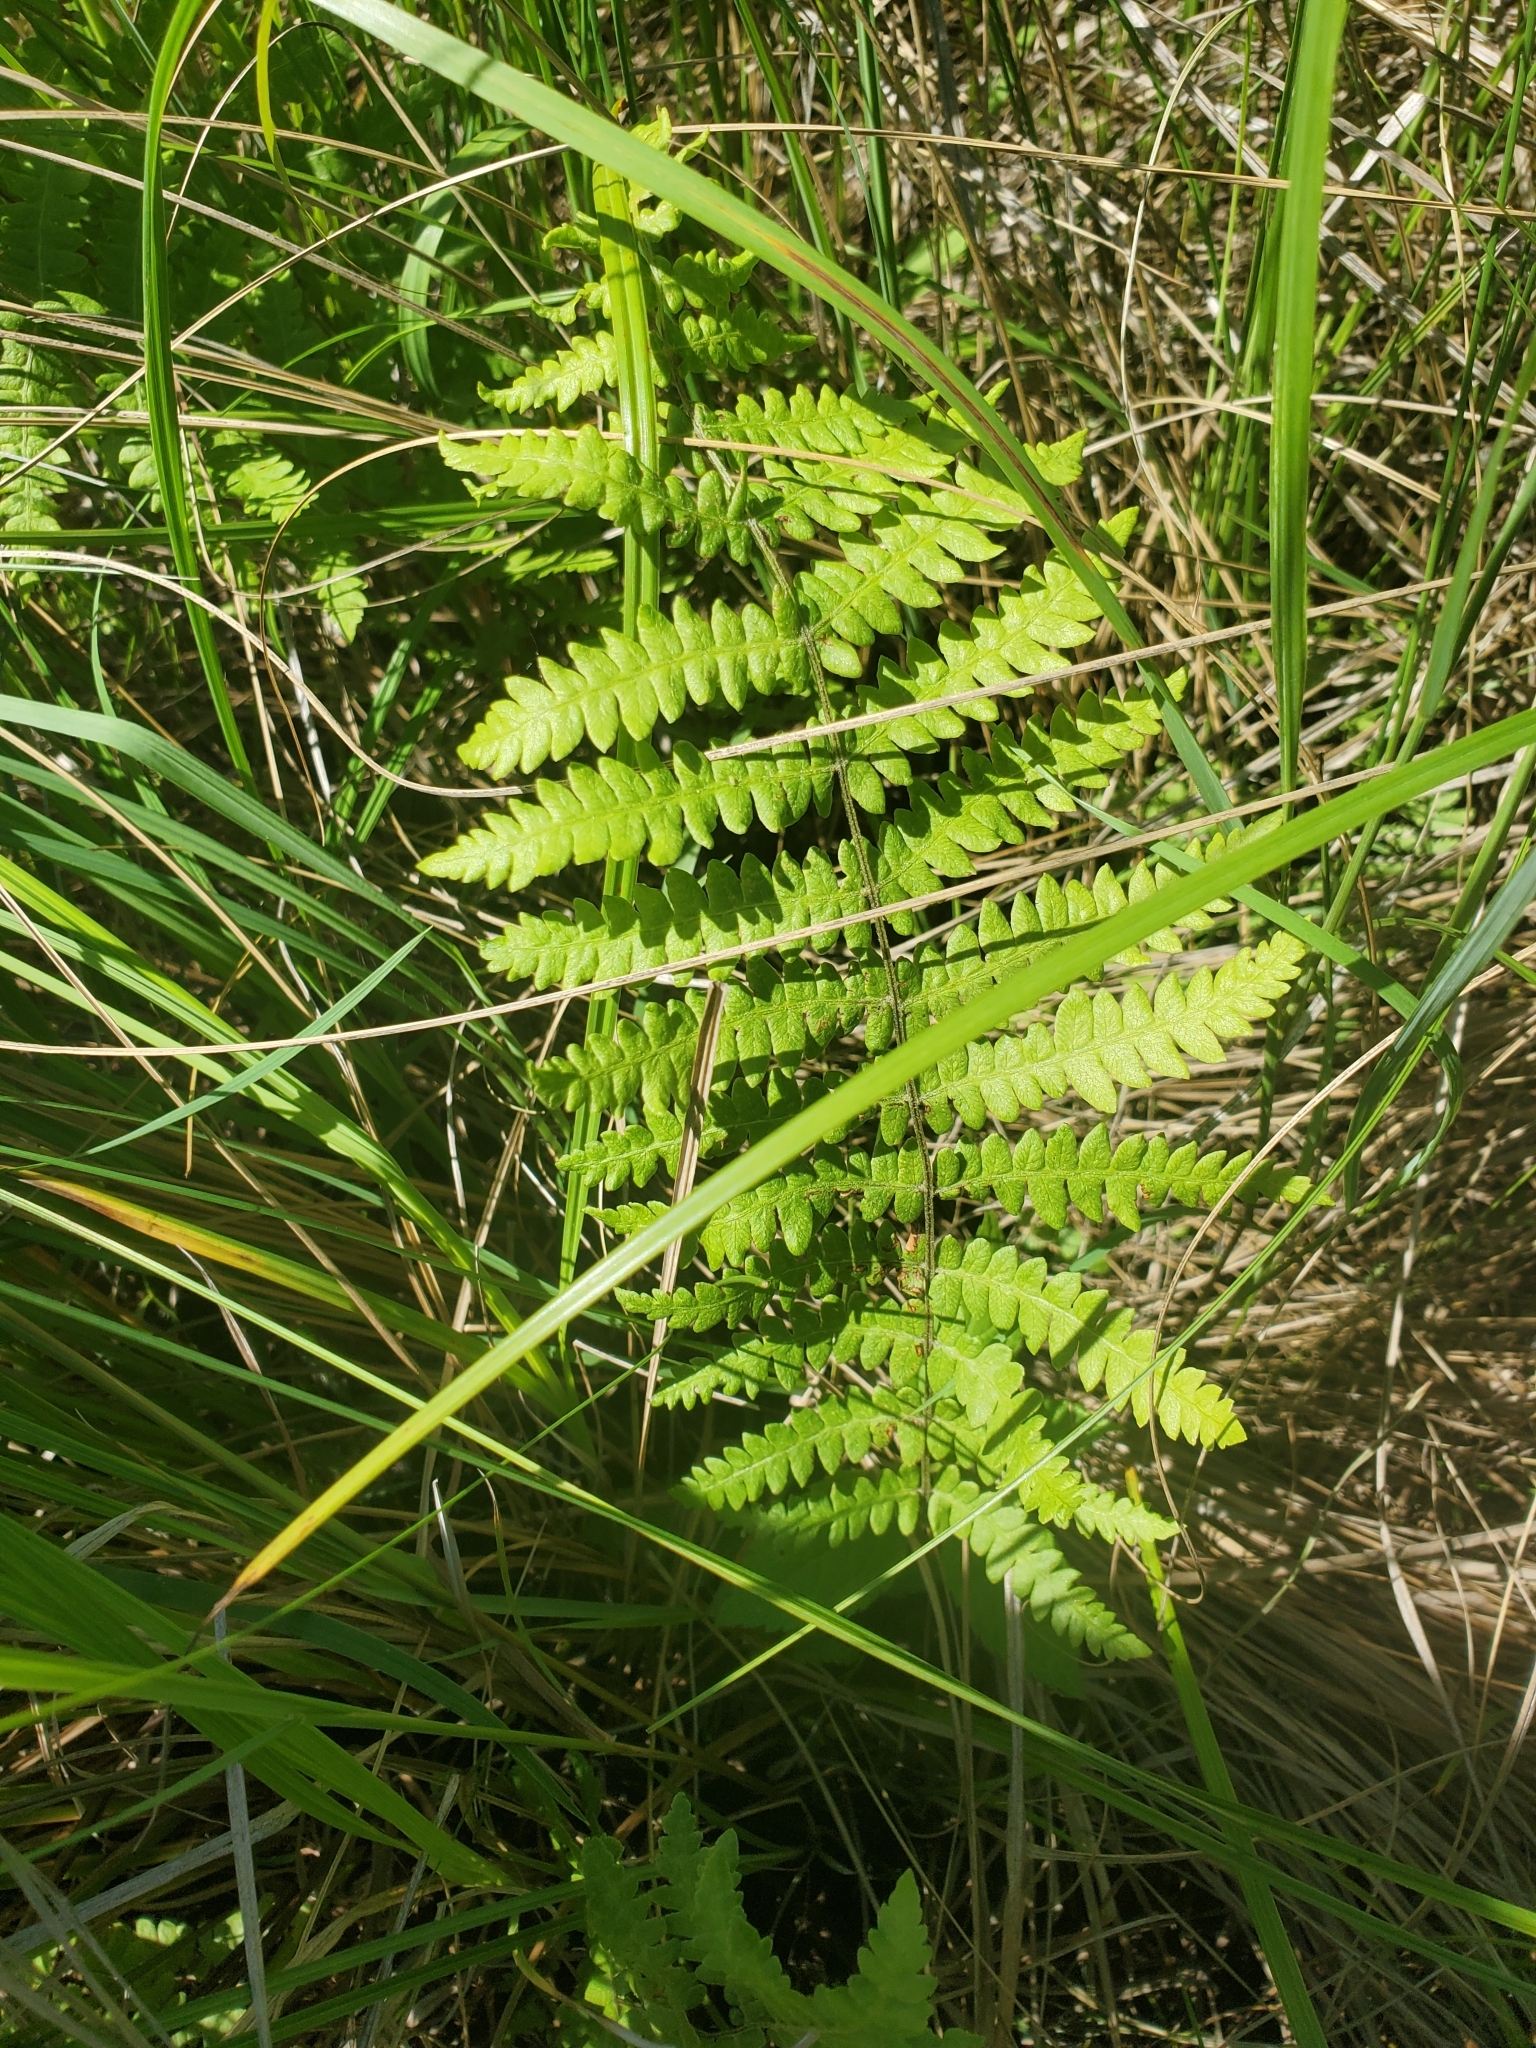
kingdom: Plantae
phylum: Tracheophyta
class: Polypodiopsida
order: Polypodiales
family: Thelypteridaceae
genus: Thelypteris
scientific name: Thelypteris palustris
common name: Marsh fern
